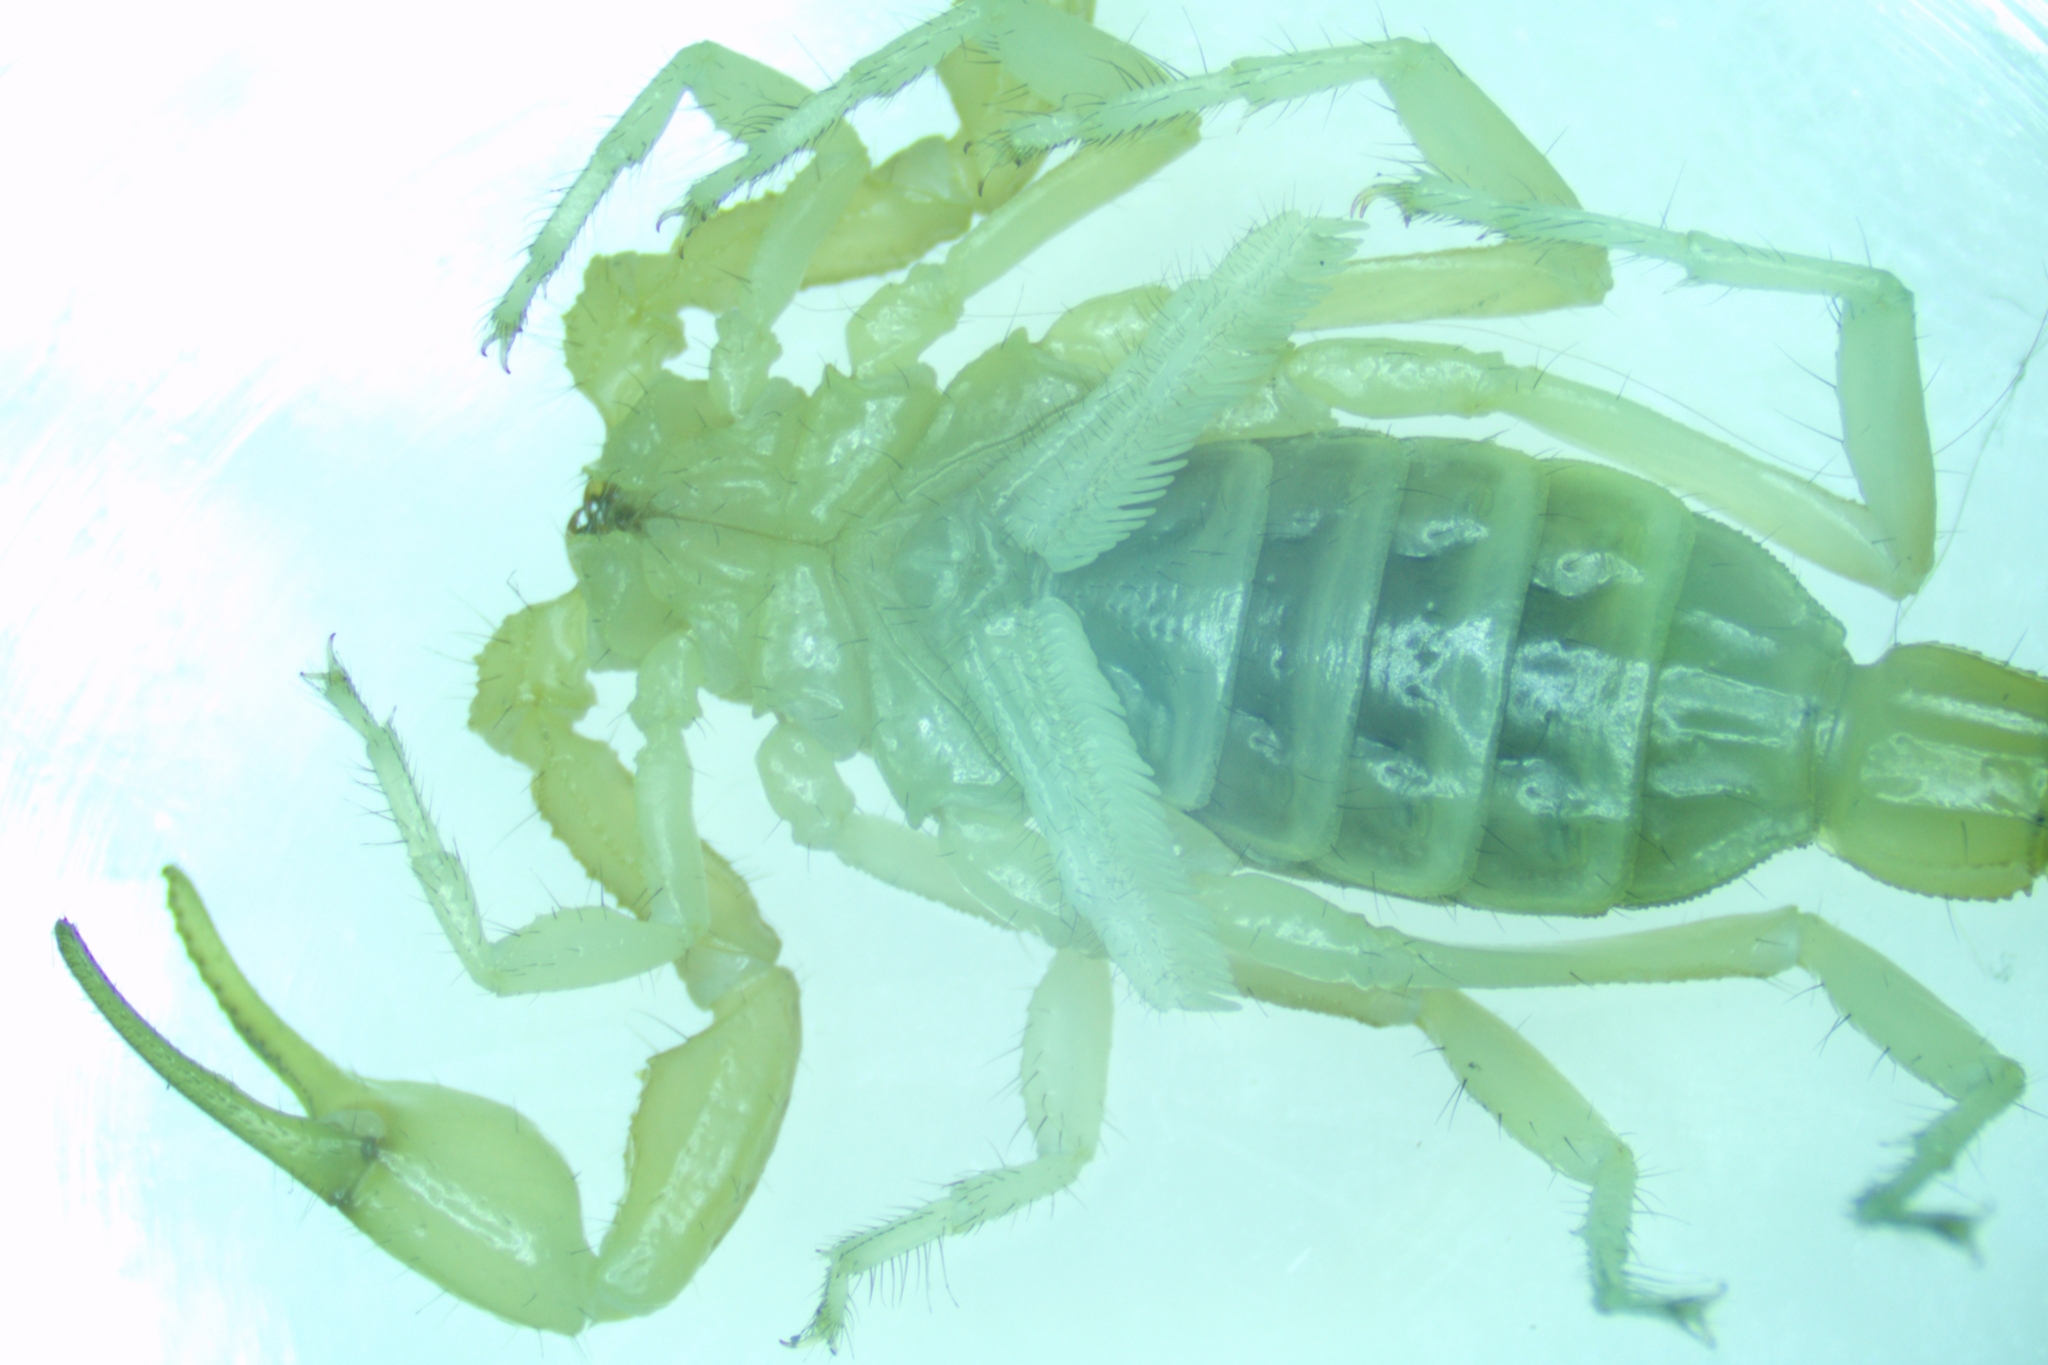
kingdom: Animalia
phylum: Arthropoda
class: Arachnida
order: Scorpiones
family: Buthidae
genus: Mesobuthus
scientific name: Mesobuthus thersites
